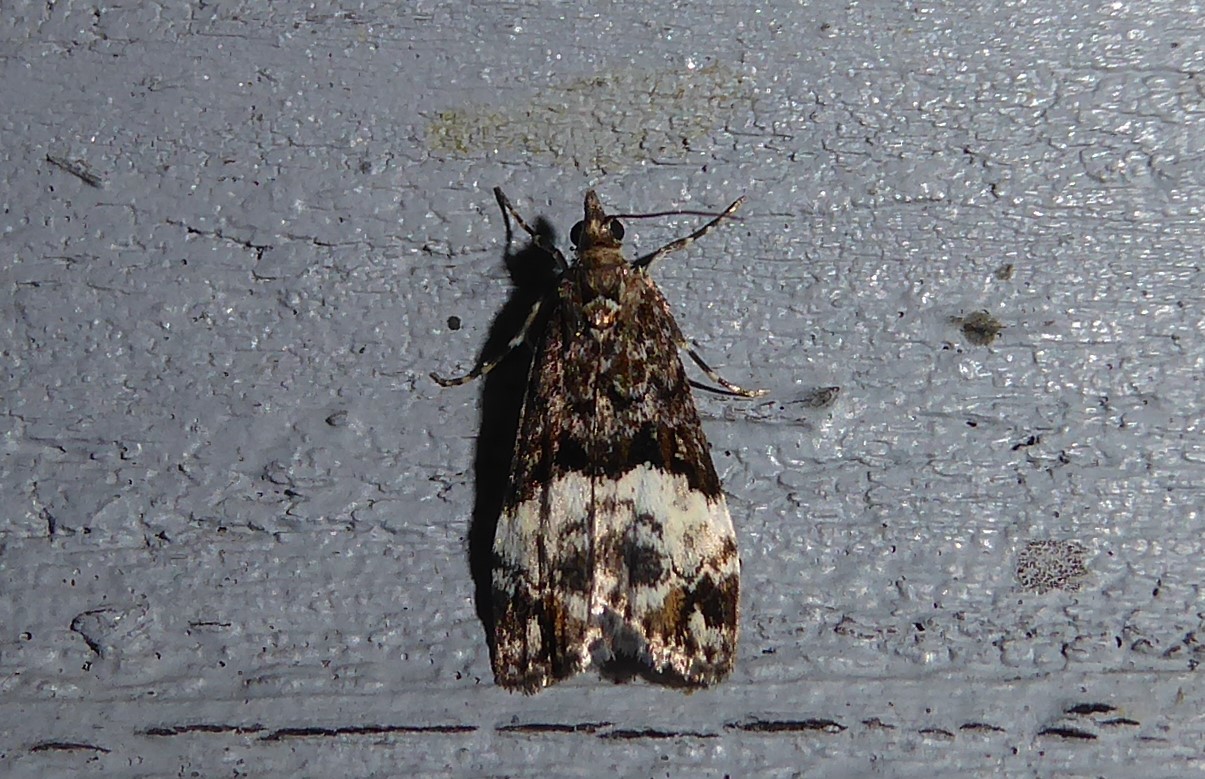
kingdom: Animalia
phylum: Arthropoda
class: Insecta
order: Lepidoptera
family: Crambidae
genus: Scoparia
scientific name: Scoparia minusculalis
